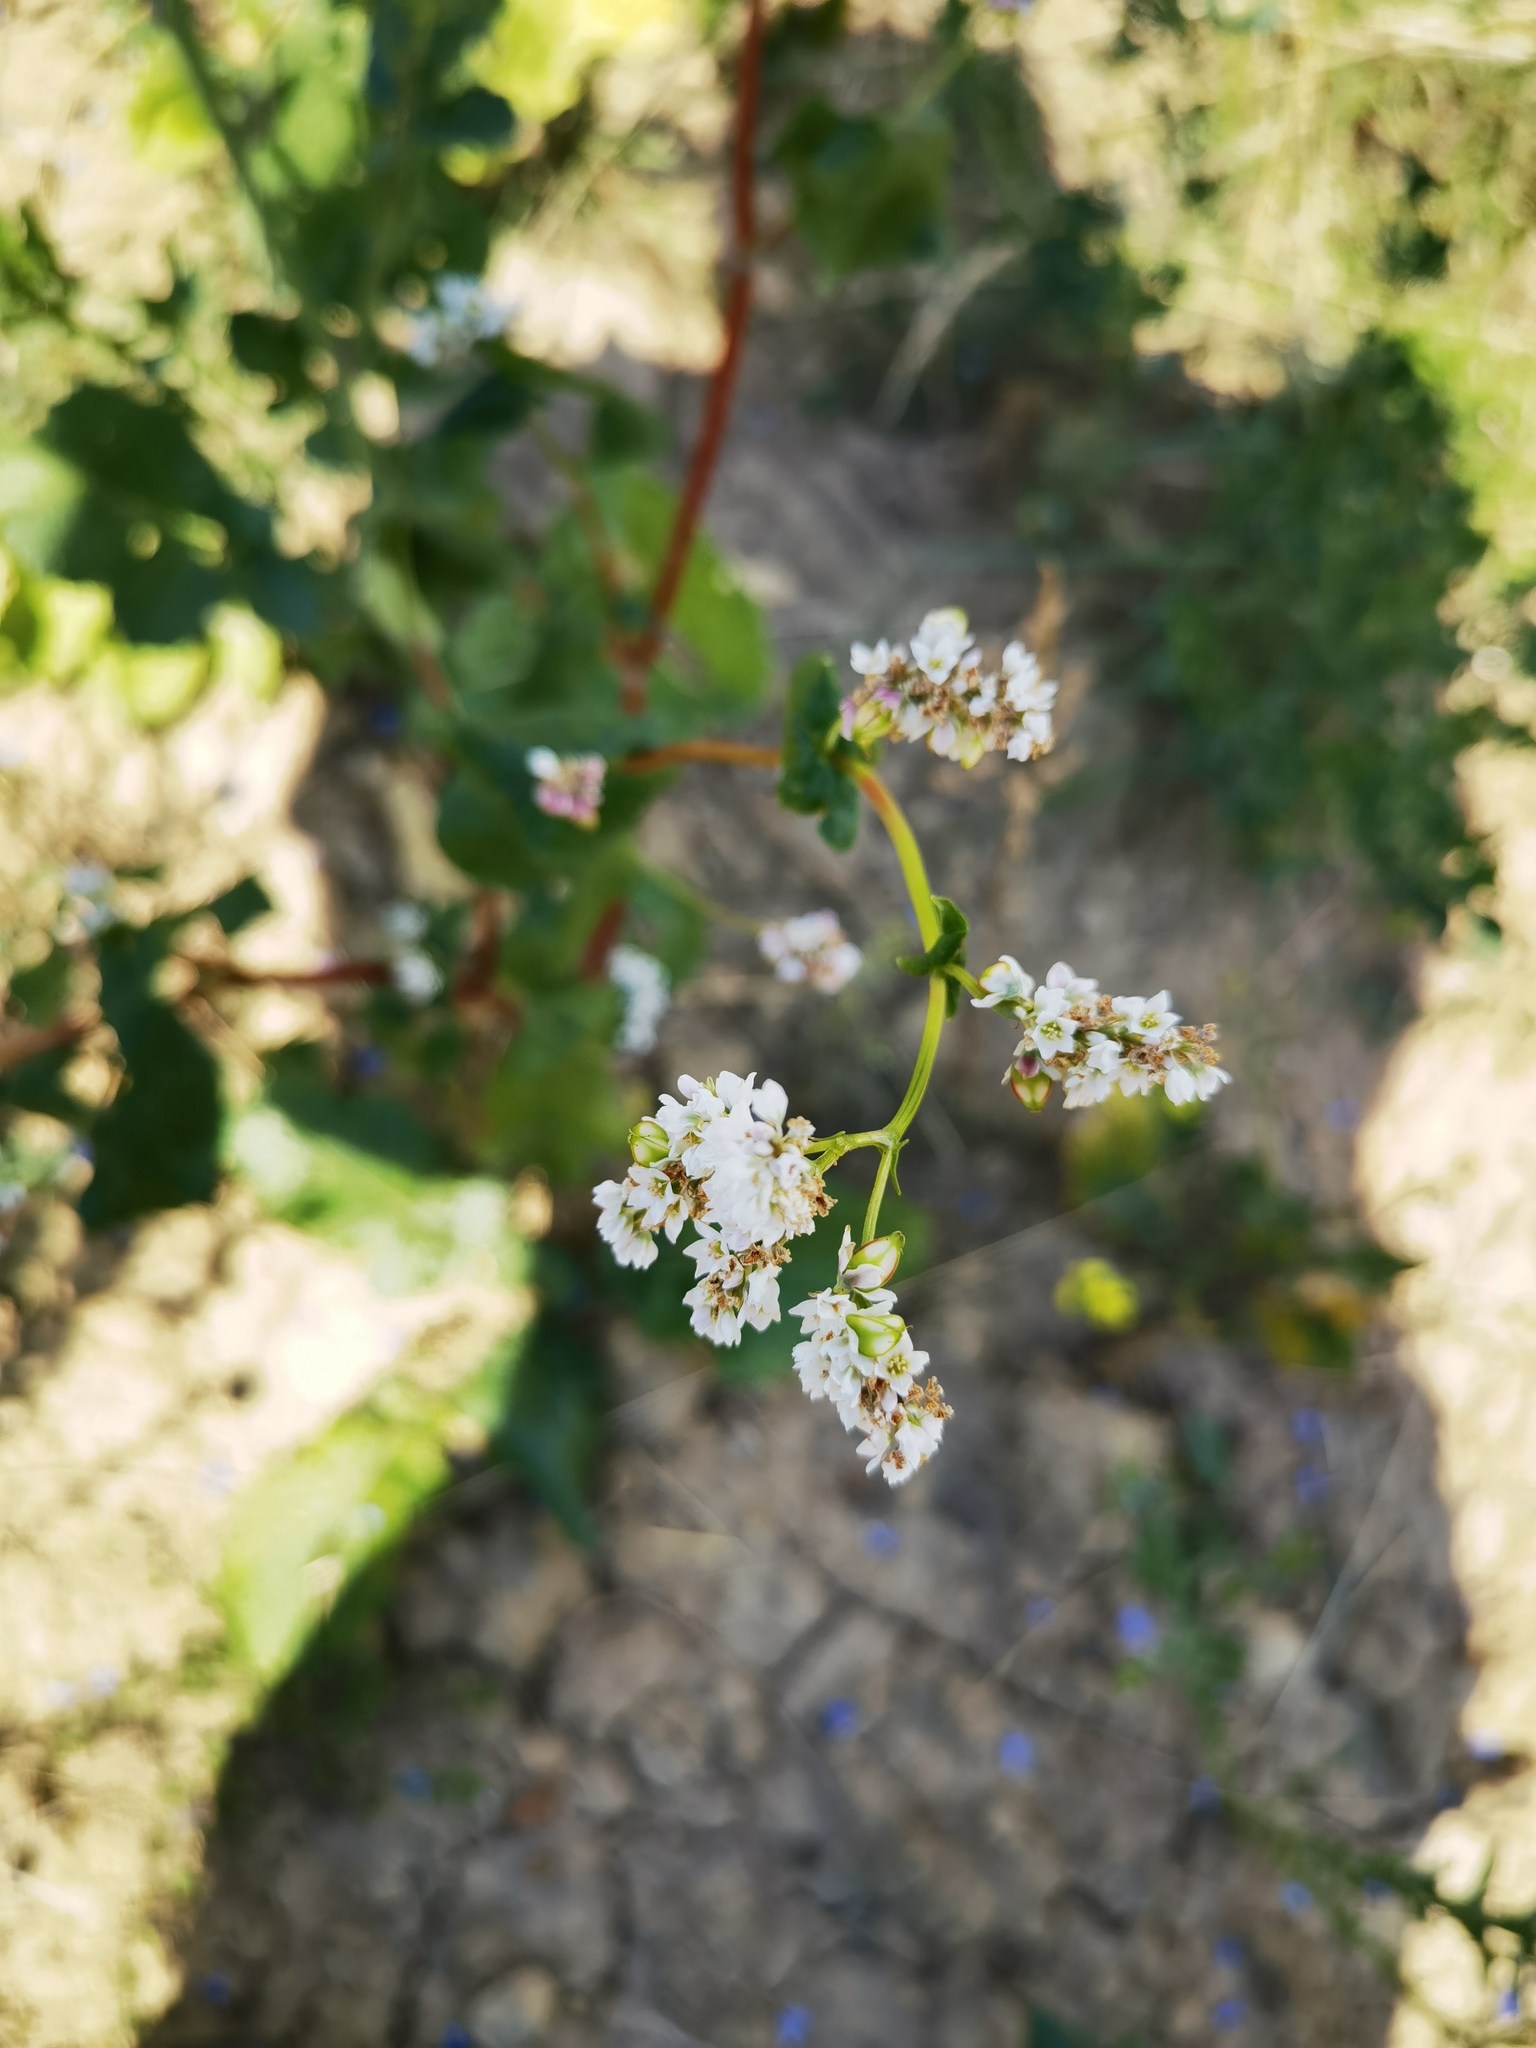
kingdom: Plantae
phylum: Tracheophyta
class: Magnoliopsida
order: Caryophyllales
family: Polygonaceae
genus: Fagopyrum
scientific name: Fagopyrum esculentum
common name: Buckwheat
